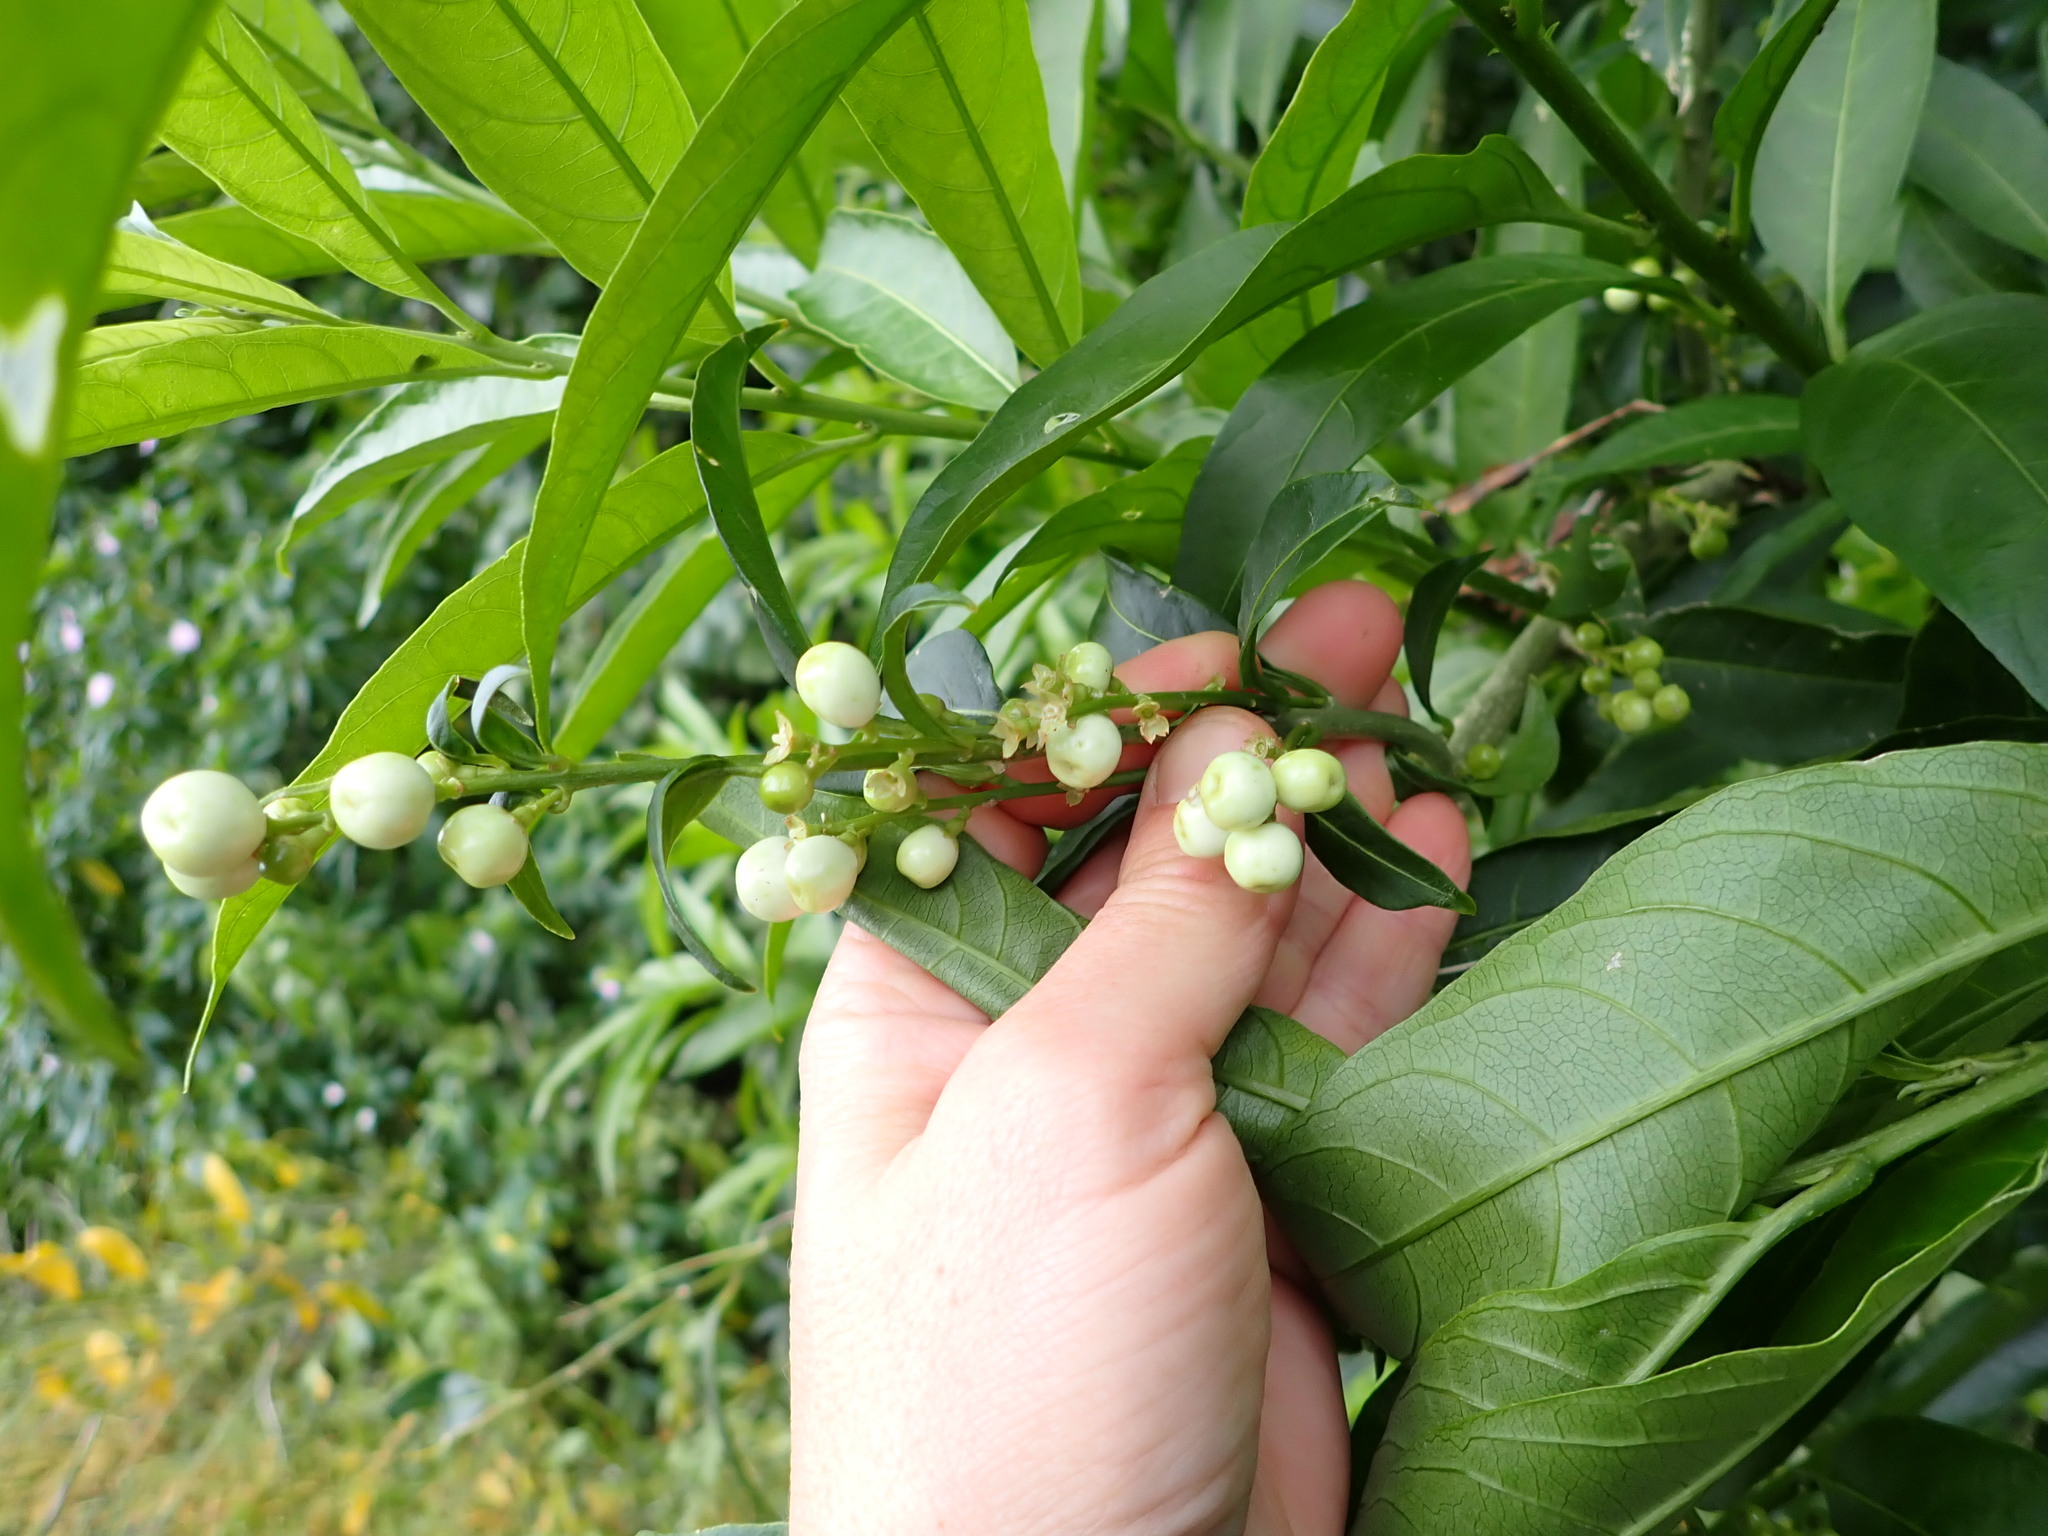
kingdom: Plantae
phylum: Tracheophyta
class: Magnoliopsida
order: Solanales
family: Solanaceae
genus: Cestrum
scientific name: Cestrum nocturnum
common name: Night jessamine
